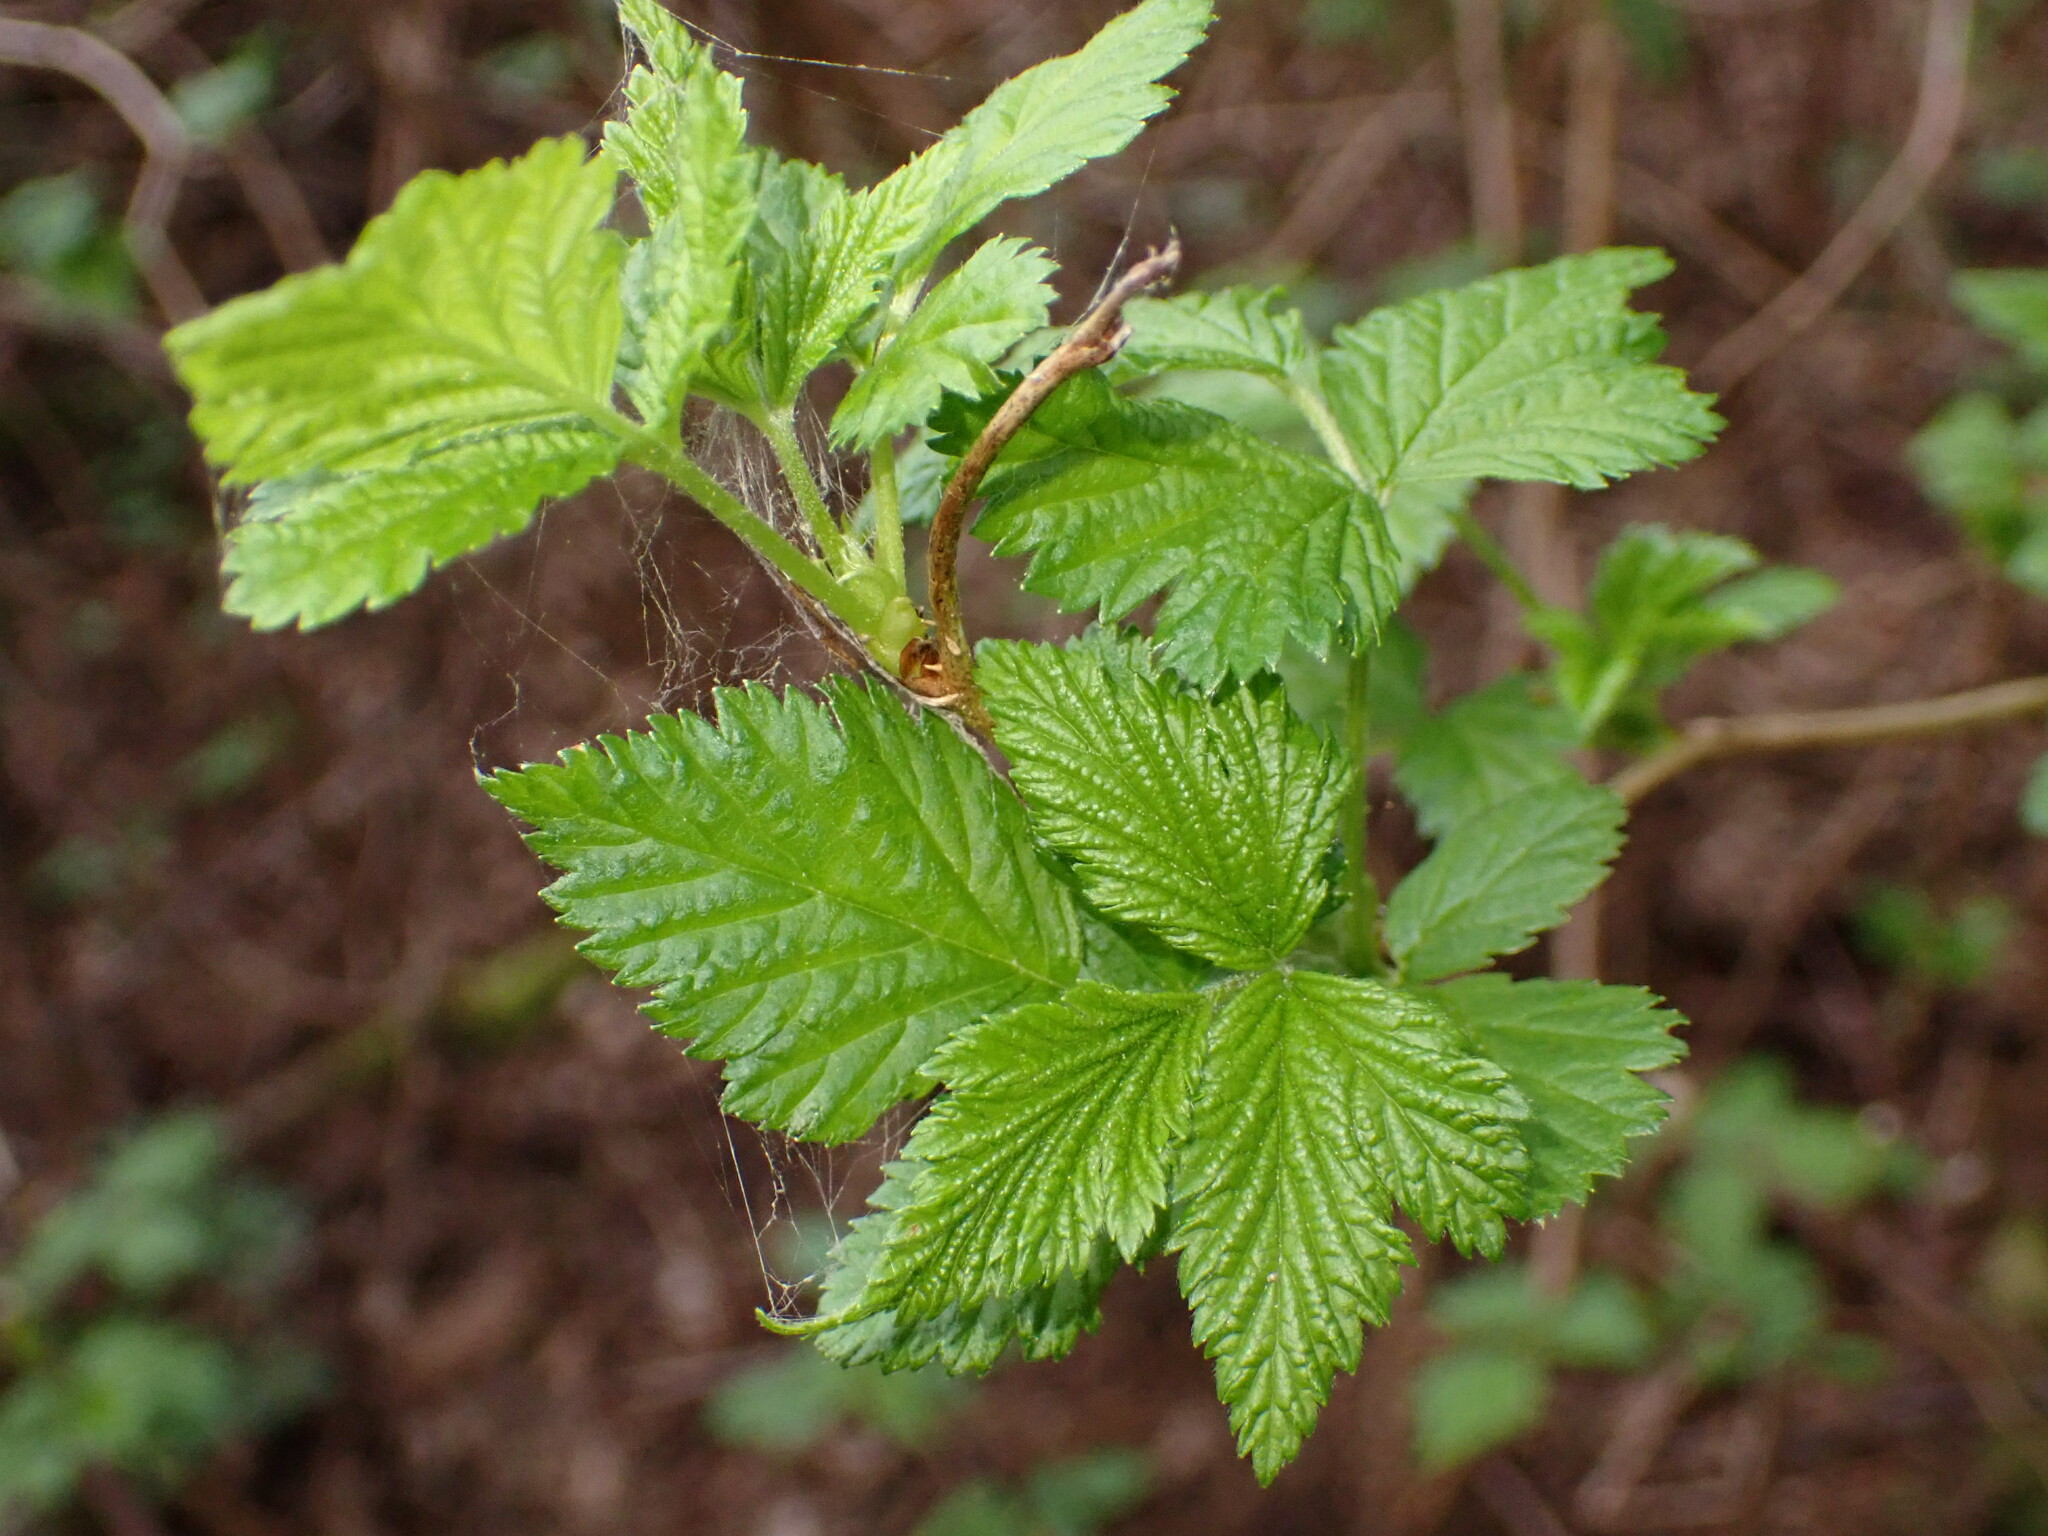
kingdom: Plantae
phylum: Tracheophyta
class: Magnoliopsida
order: Rosales
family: Rosaceae
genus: Rubus
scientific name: Rubus spectabilis
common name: Salmonberry
